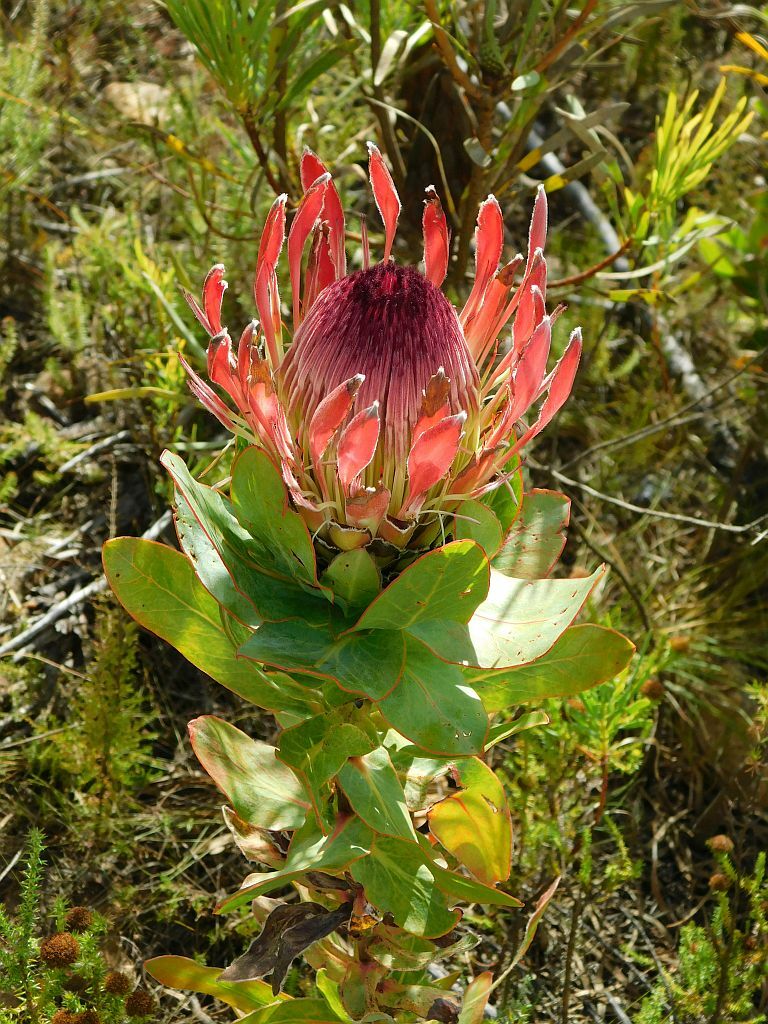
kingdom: Plantae
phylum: Tracheophyta
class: Magnoliopsida
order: Proteales
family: Proteaceae
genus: Protea
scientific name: Protea eximia
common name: Broad-leaved sugarbush
